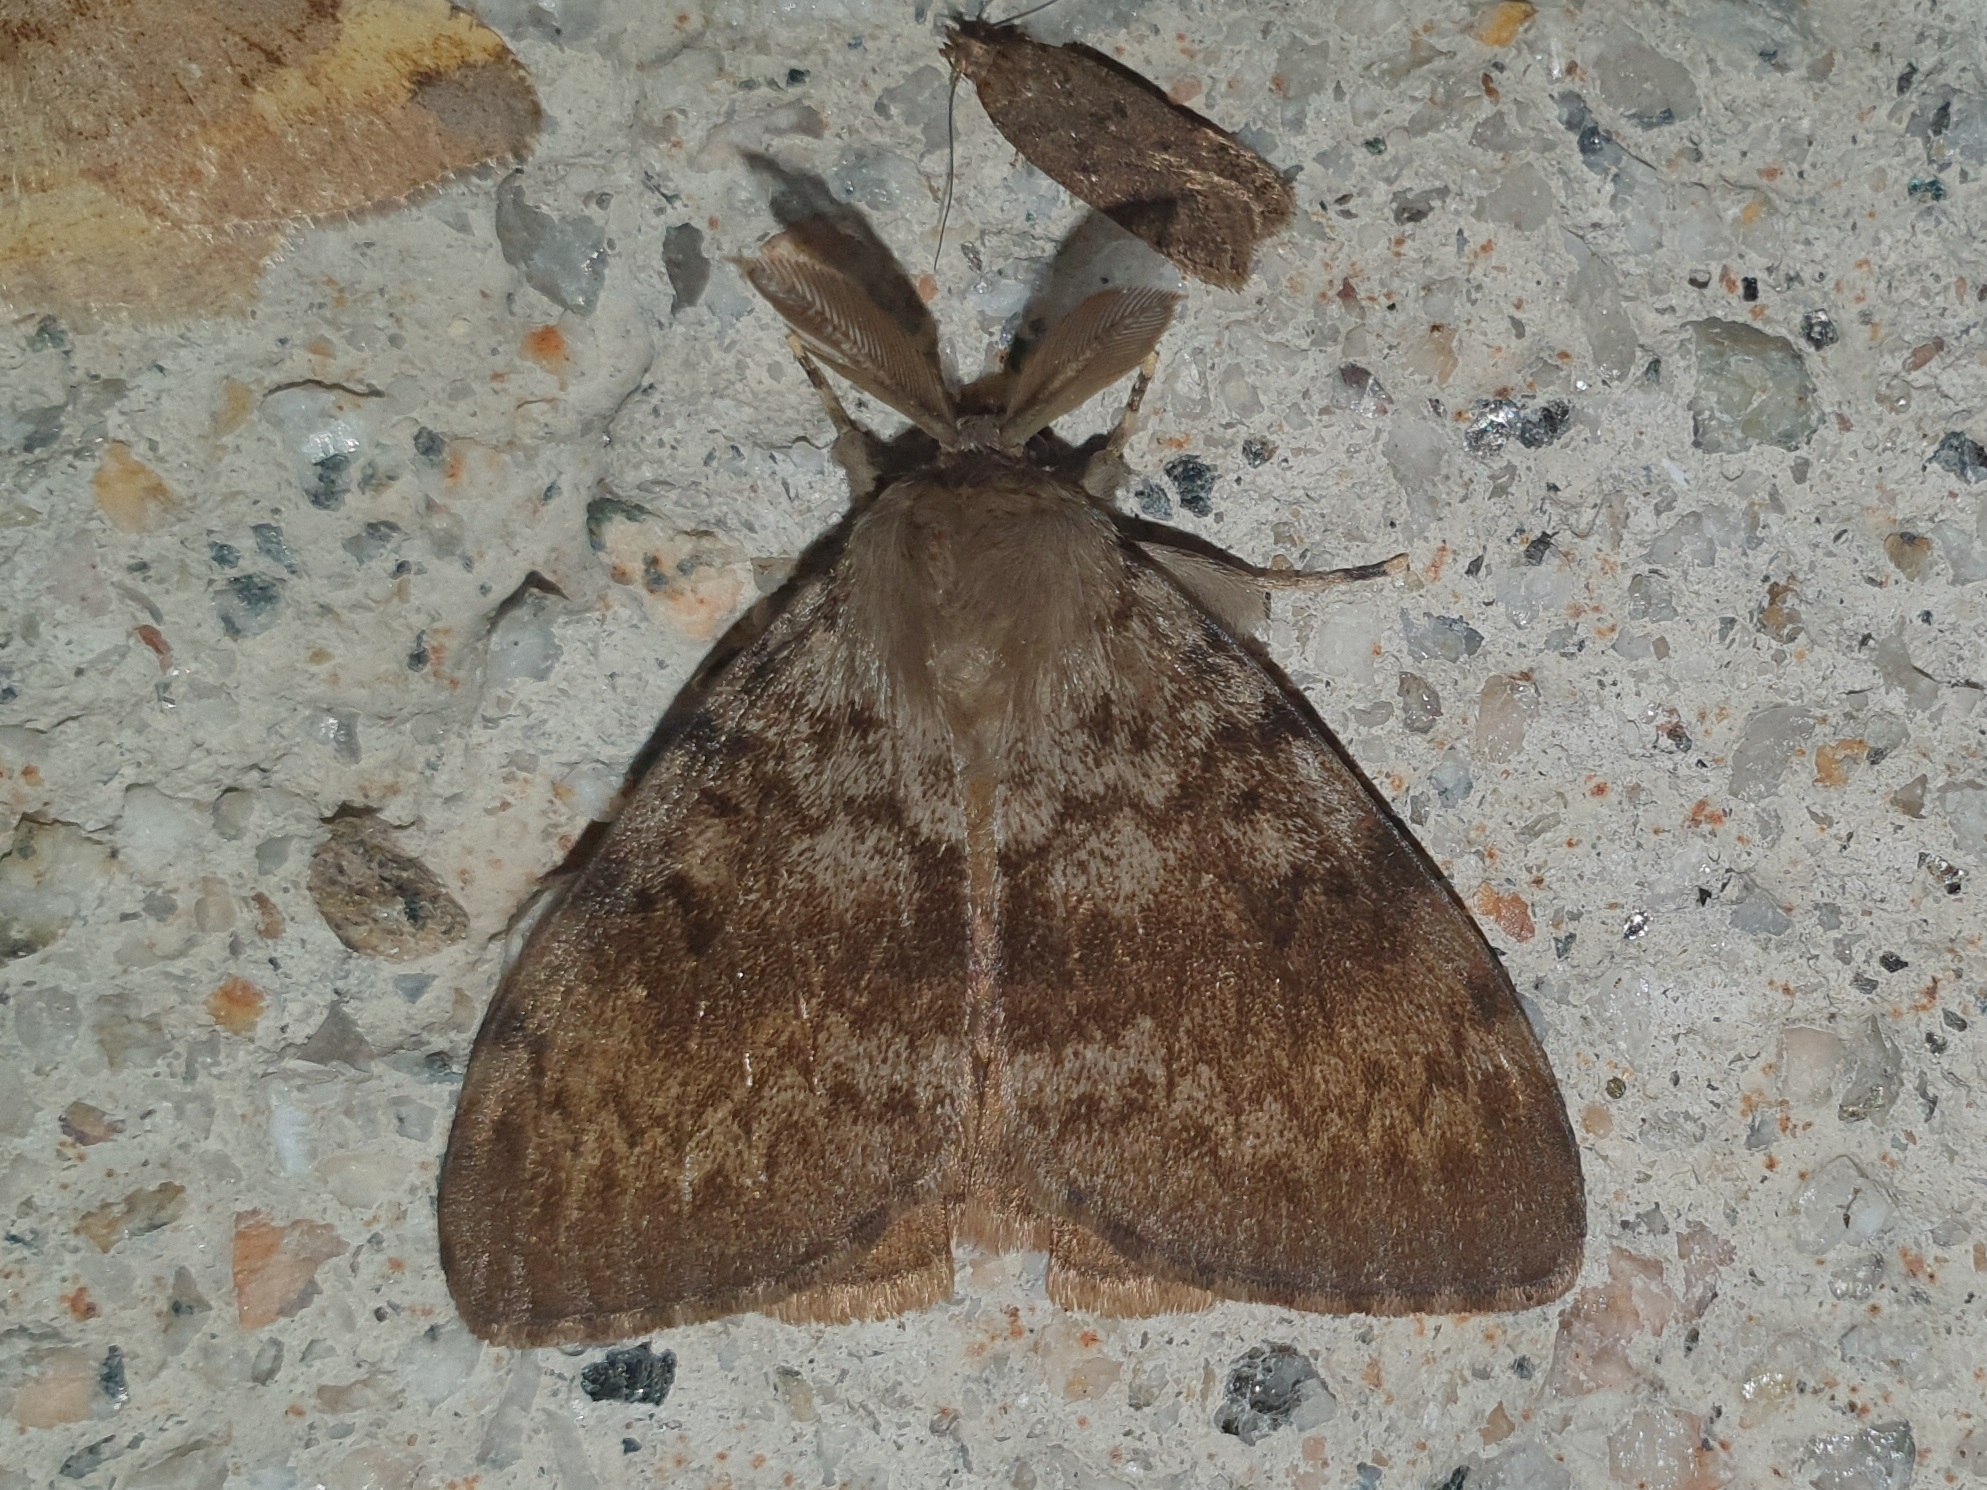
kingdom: Animalia
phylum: Arthropoda
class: Insecta
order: Lepidoptera
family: Erebidae
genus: Lymantria
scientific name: Lymantria dispar
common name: Gypsy moth
